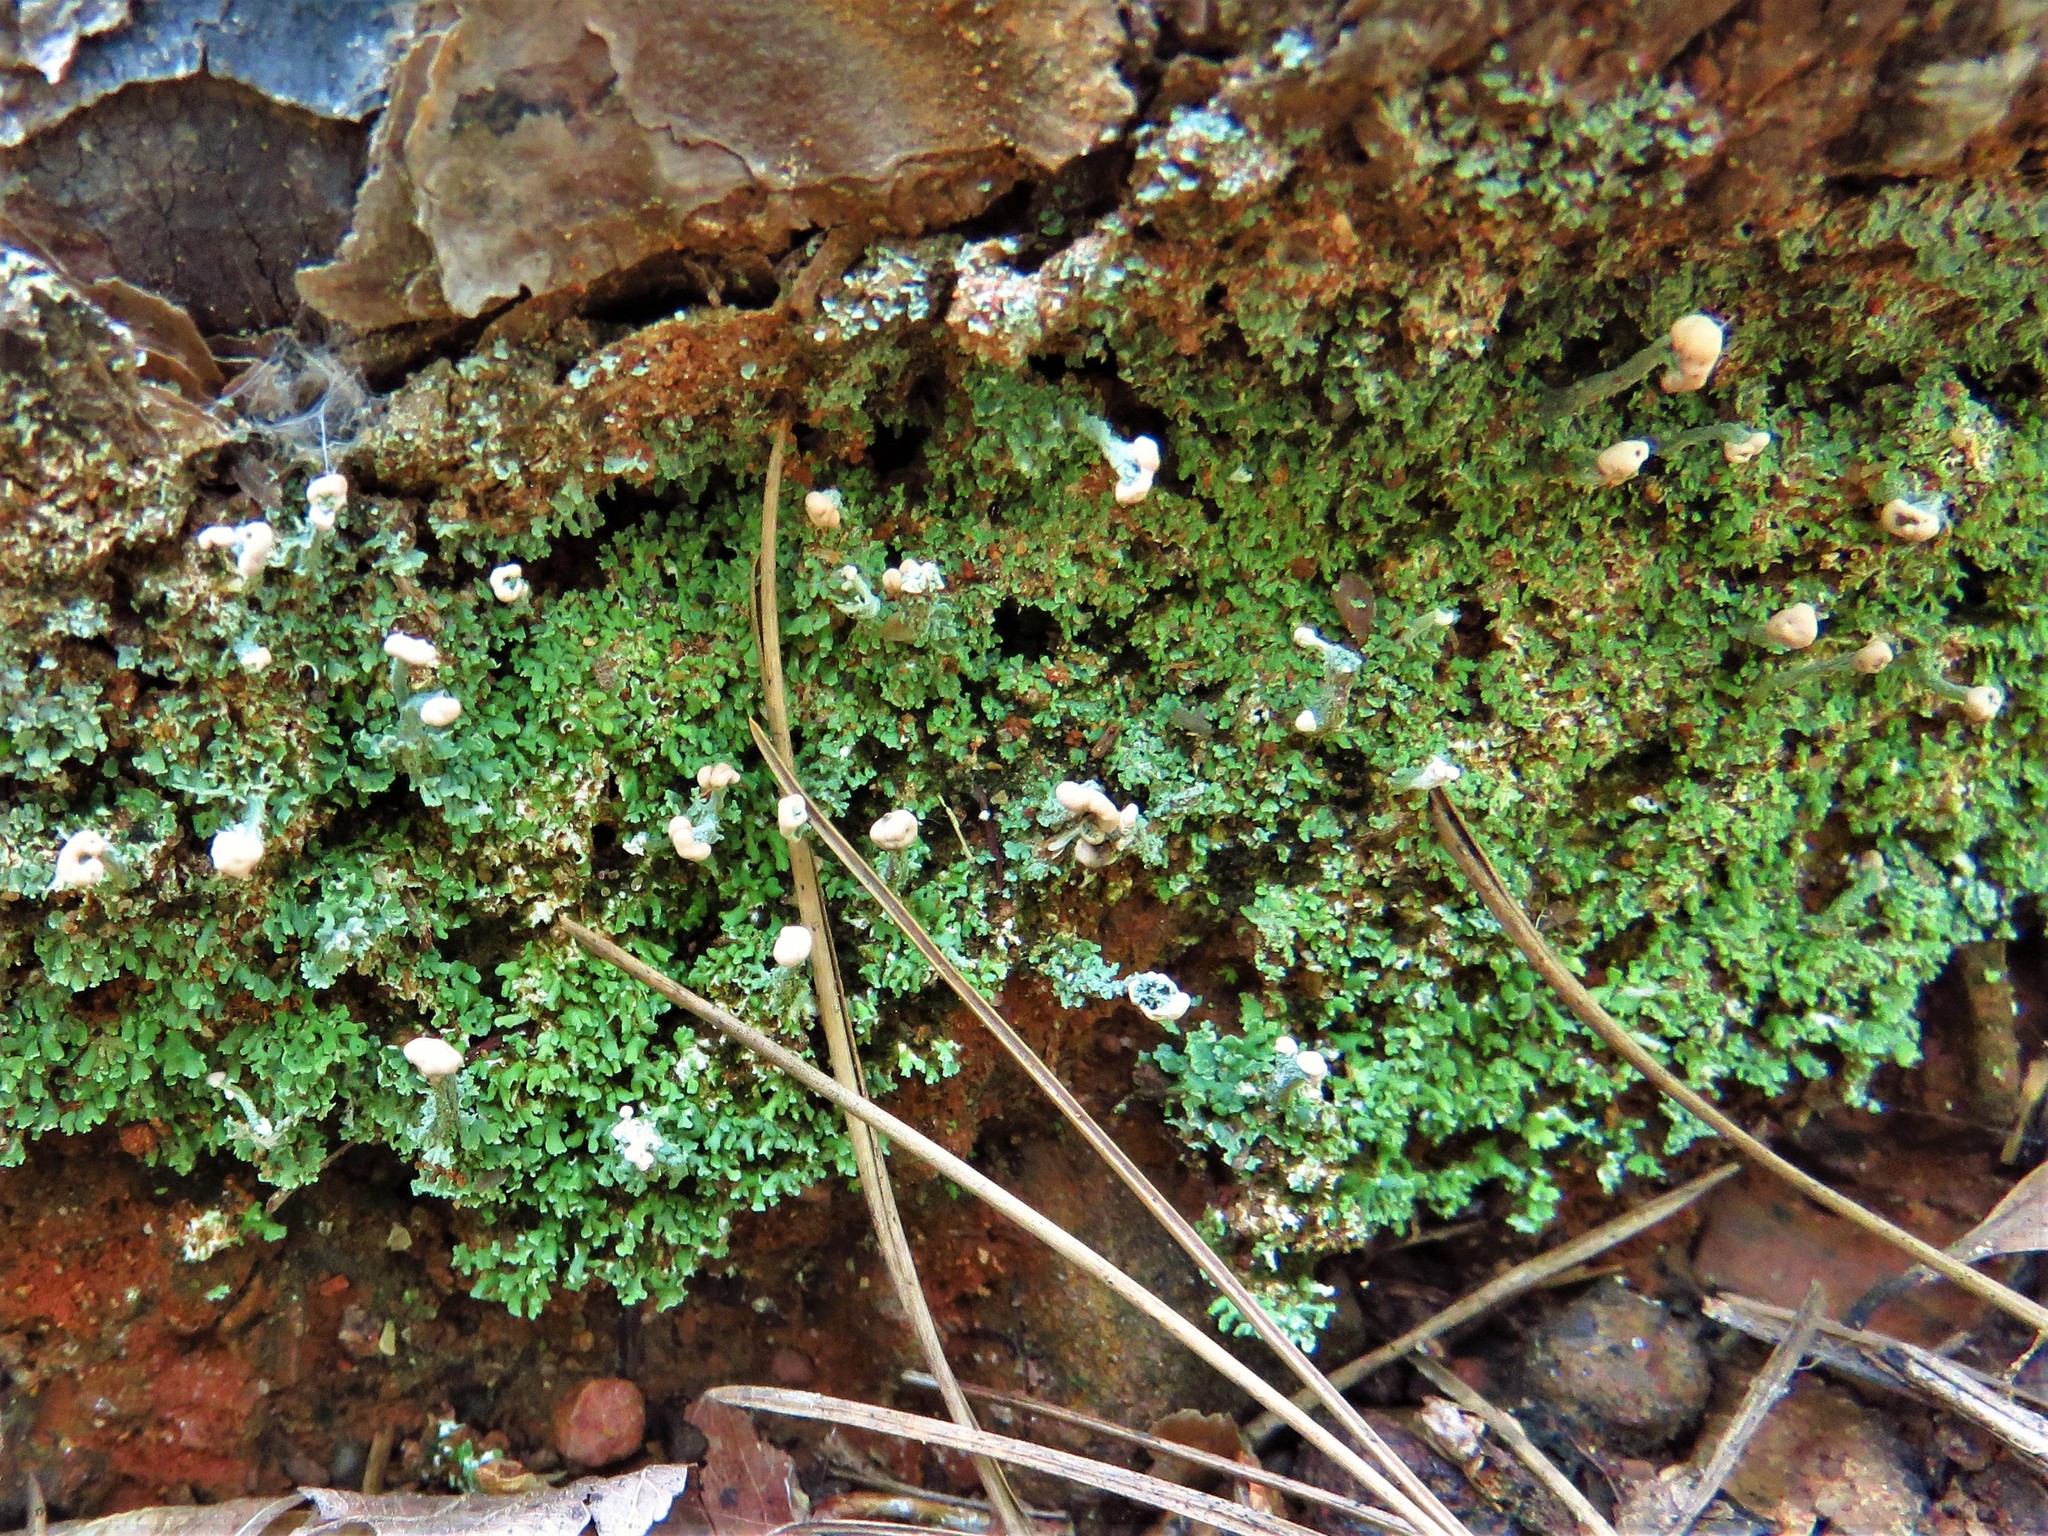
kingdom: Fungi
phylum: Ascomycota
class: Lecanoromycetes
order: Lecanorales
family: Cladoniaceae
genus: Cladonia
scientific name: Cladonia peziziformis
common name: Cup lichen
